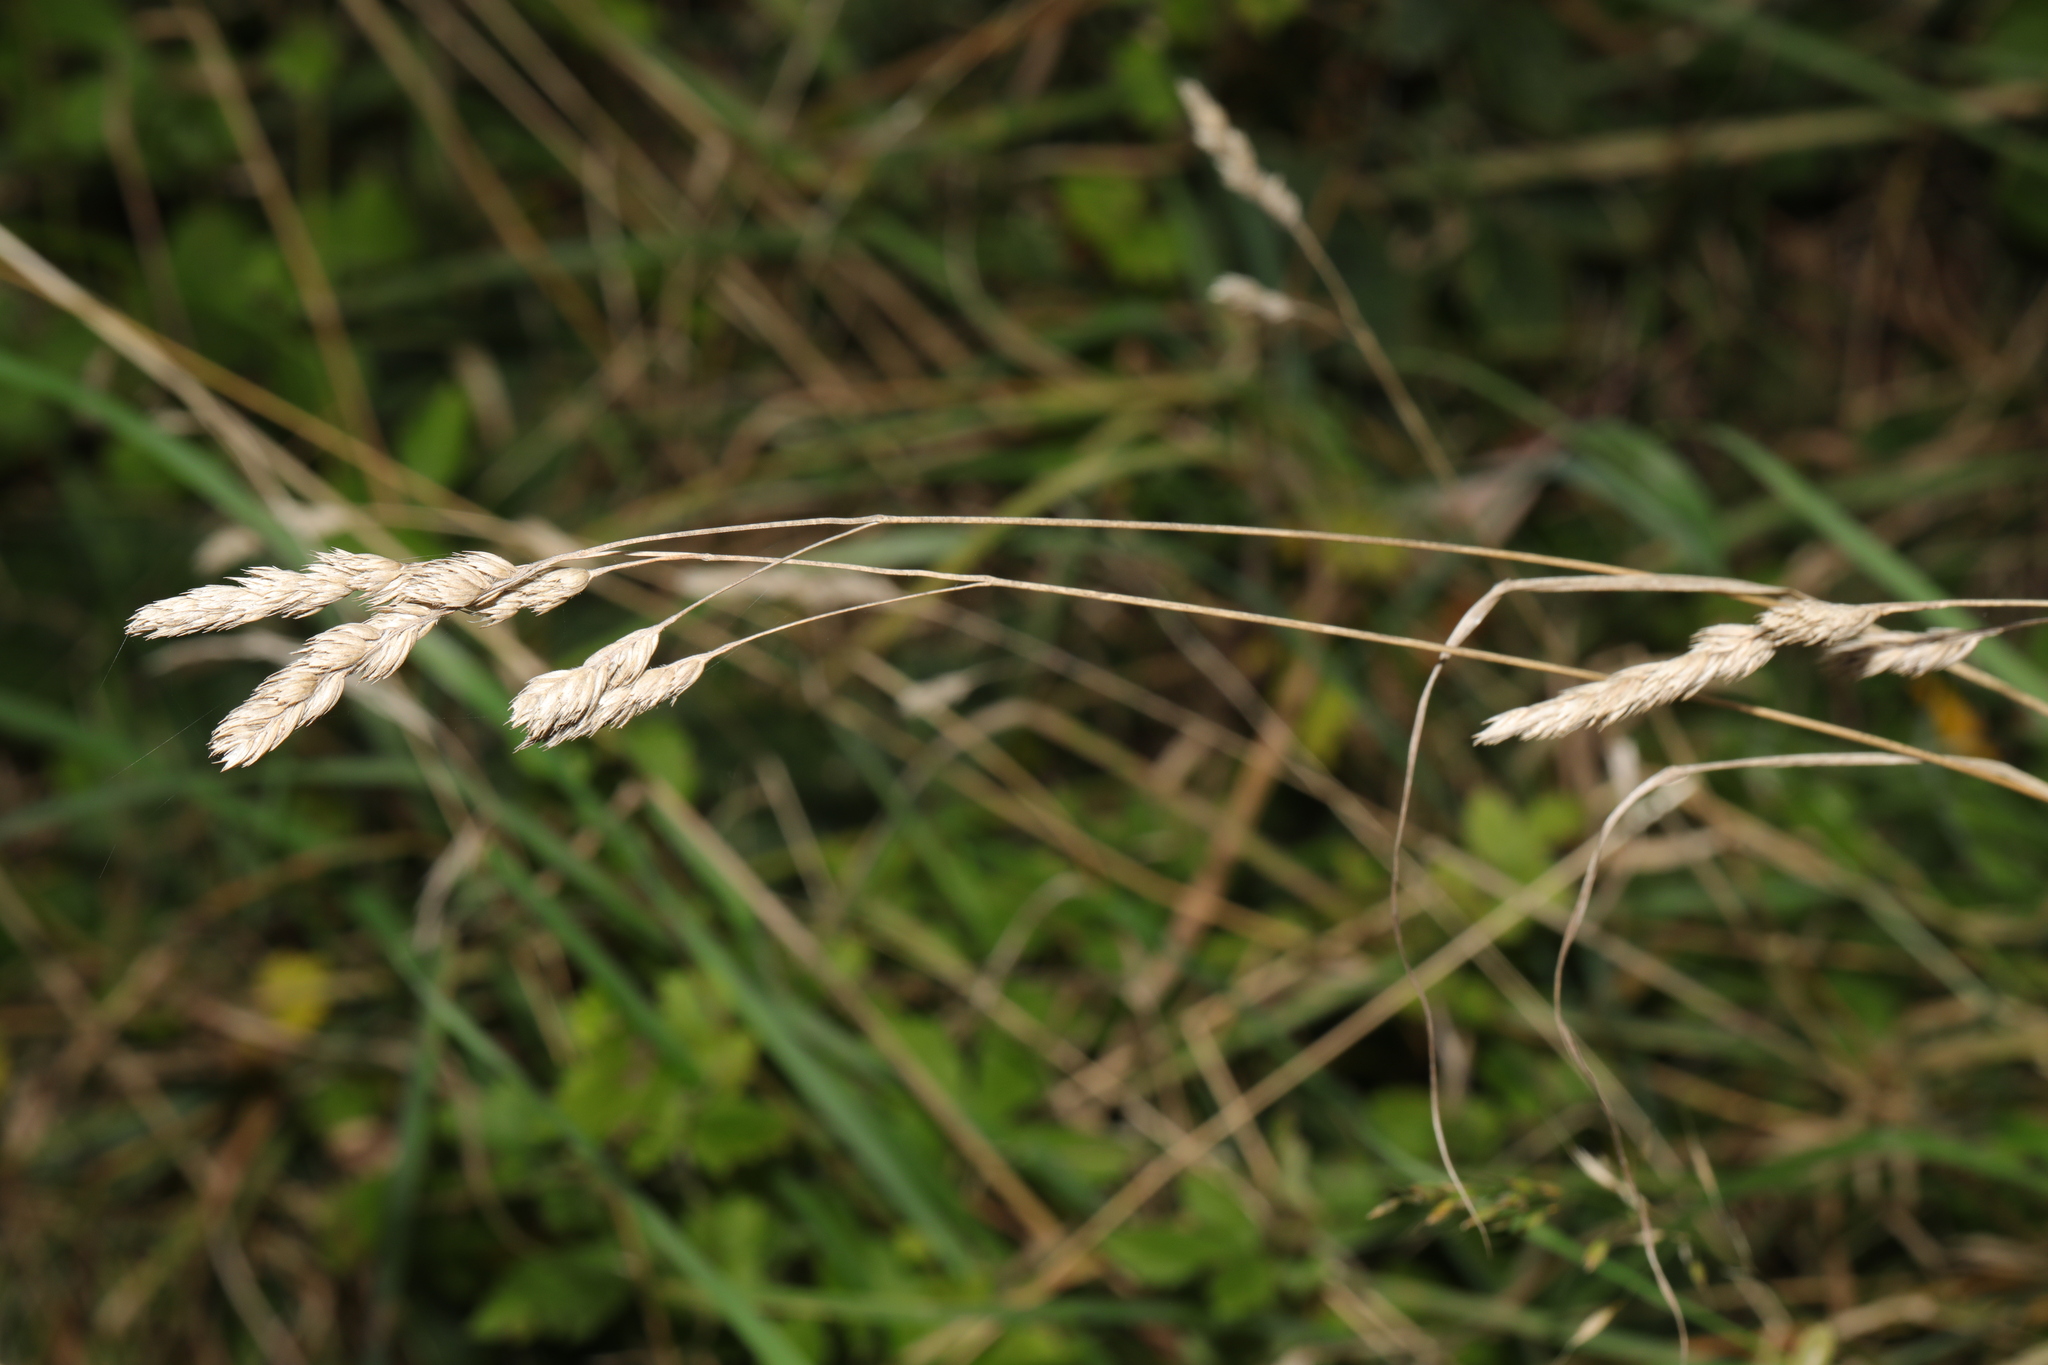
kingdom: Plantae
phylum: Tracheophyta
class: Liliopsida
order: Poales
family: Poaceae
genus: Dactylis
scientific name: Dactylis glomerata
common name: Orchardgrass
